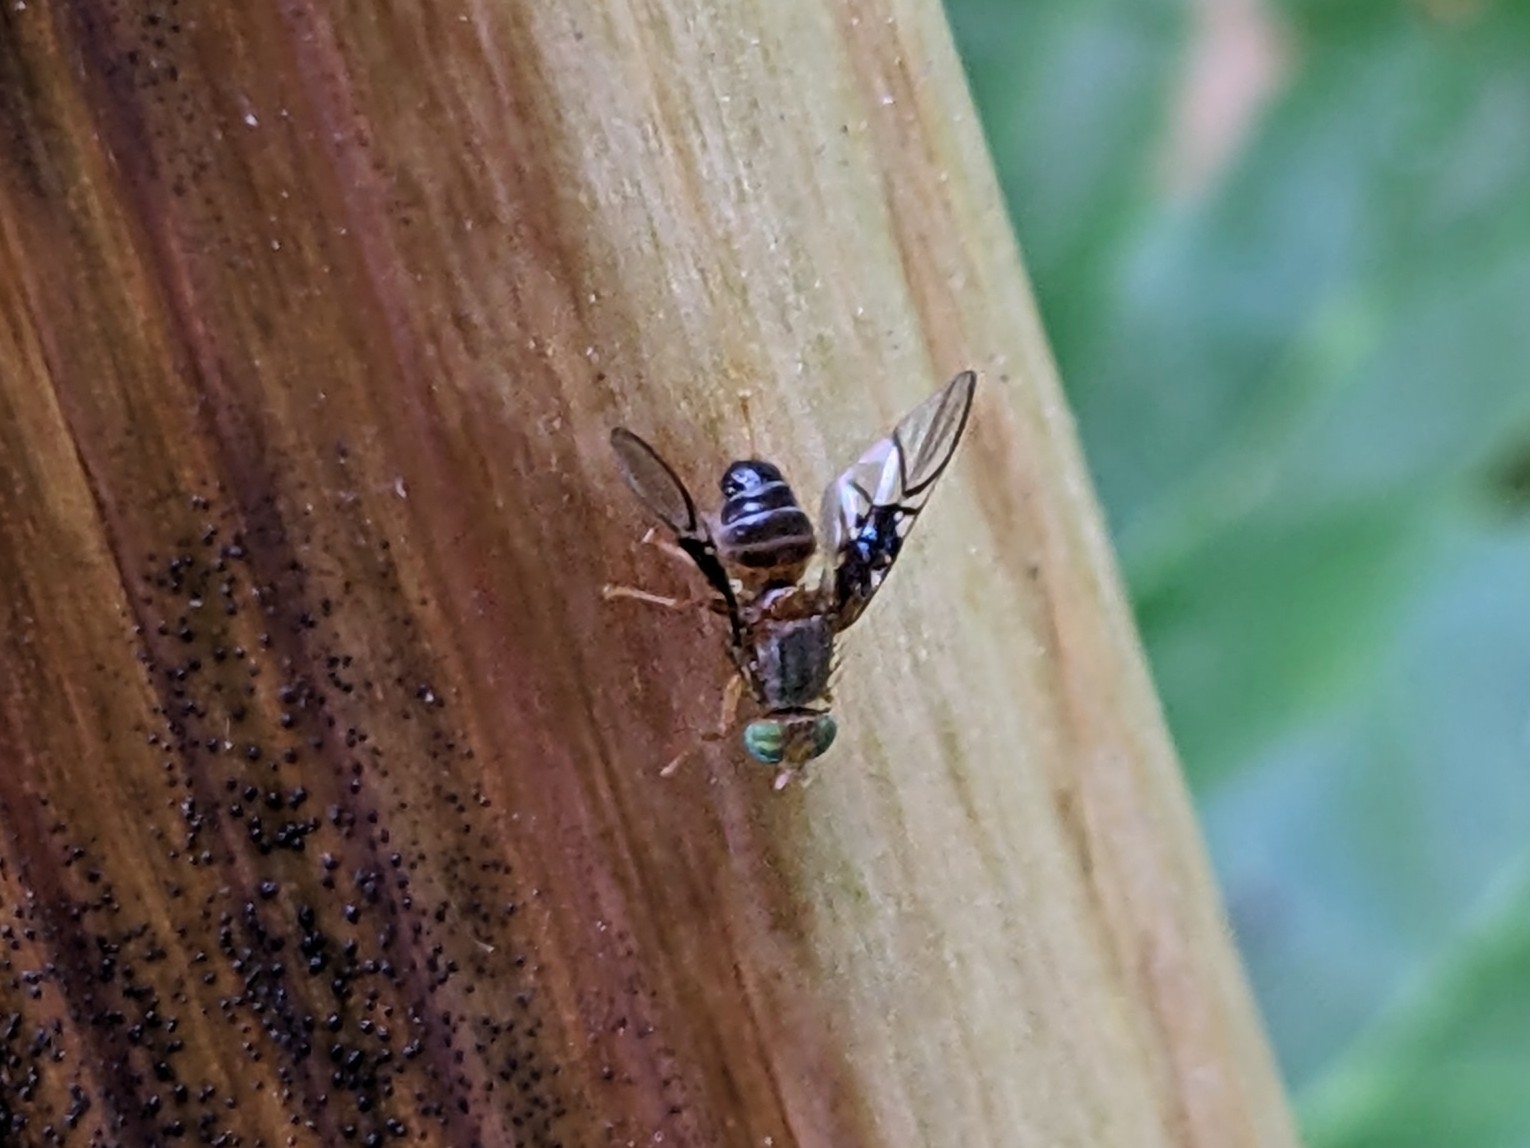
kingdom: Animalia
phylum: Arthropoda
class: Insecta
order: Diptera
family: Tephritidae
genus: Anomoia
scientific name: Anomoia purmunda
